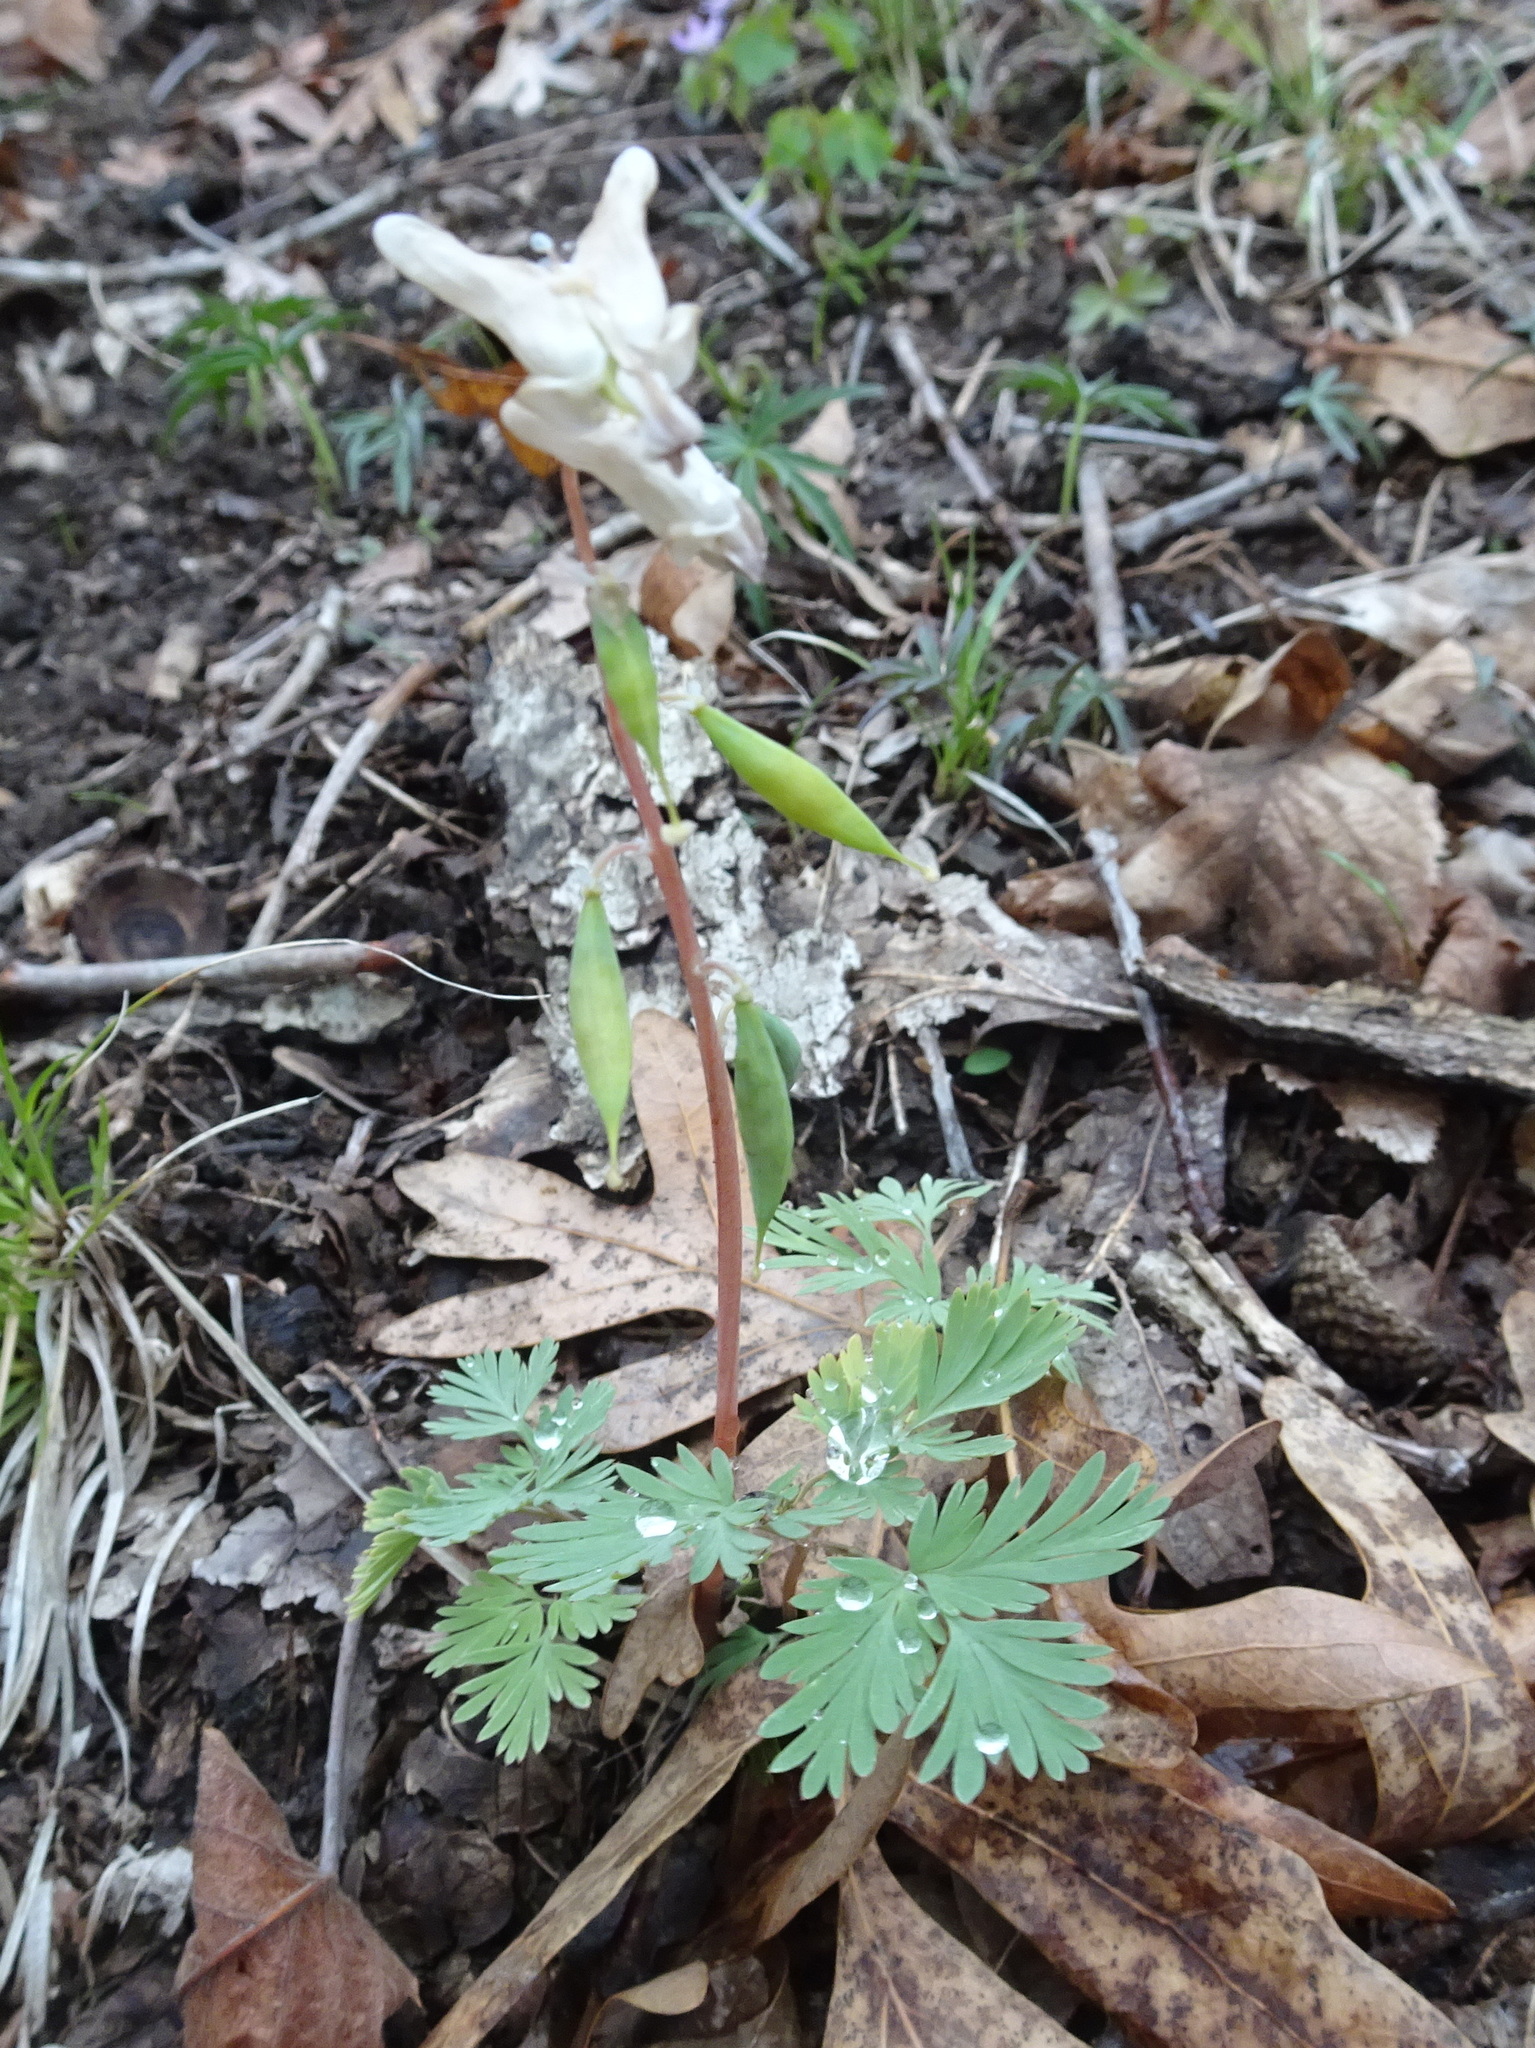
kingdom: Plantae
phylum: Tracheophyta
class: Magnoliopsida
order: Ranunculales
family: Papaveraceae
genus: Dicentra
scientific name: Dicentra cucullaria
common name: Dutchman's breeches
